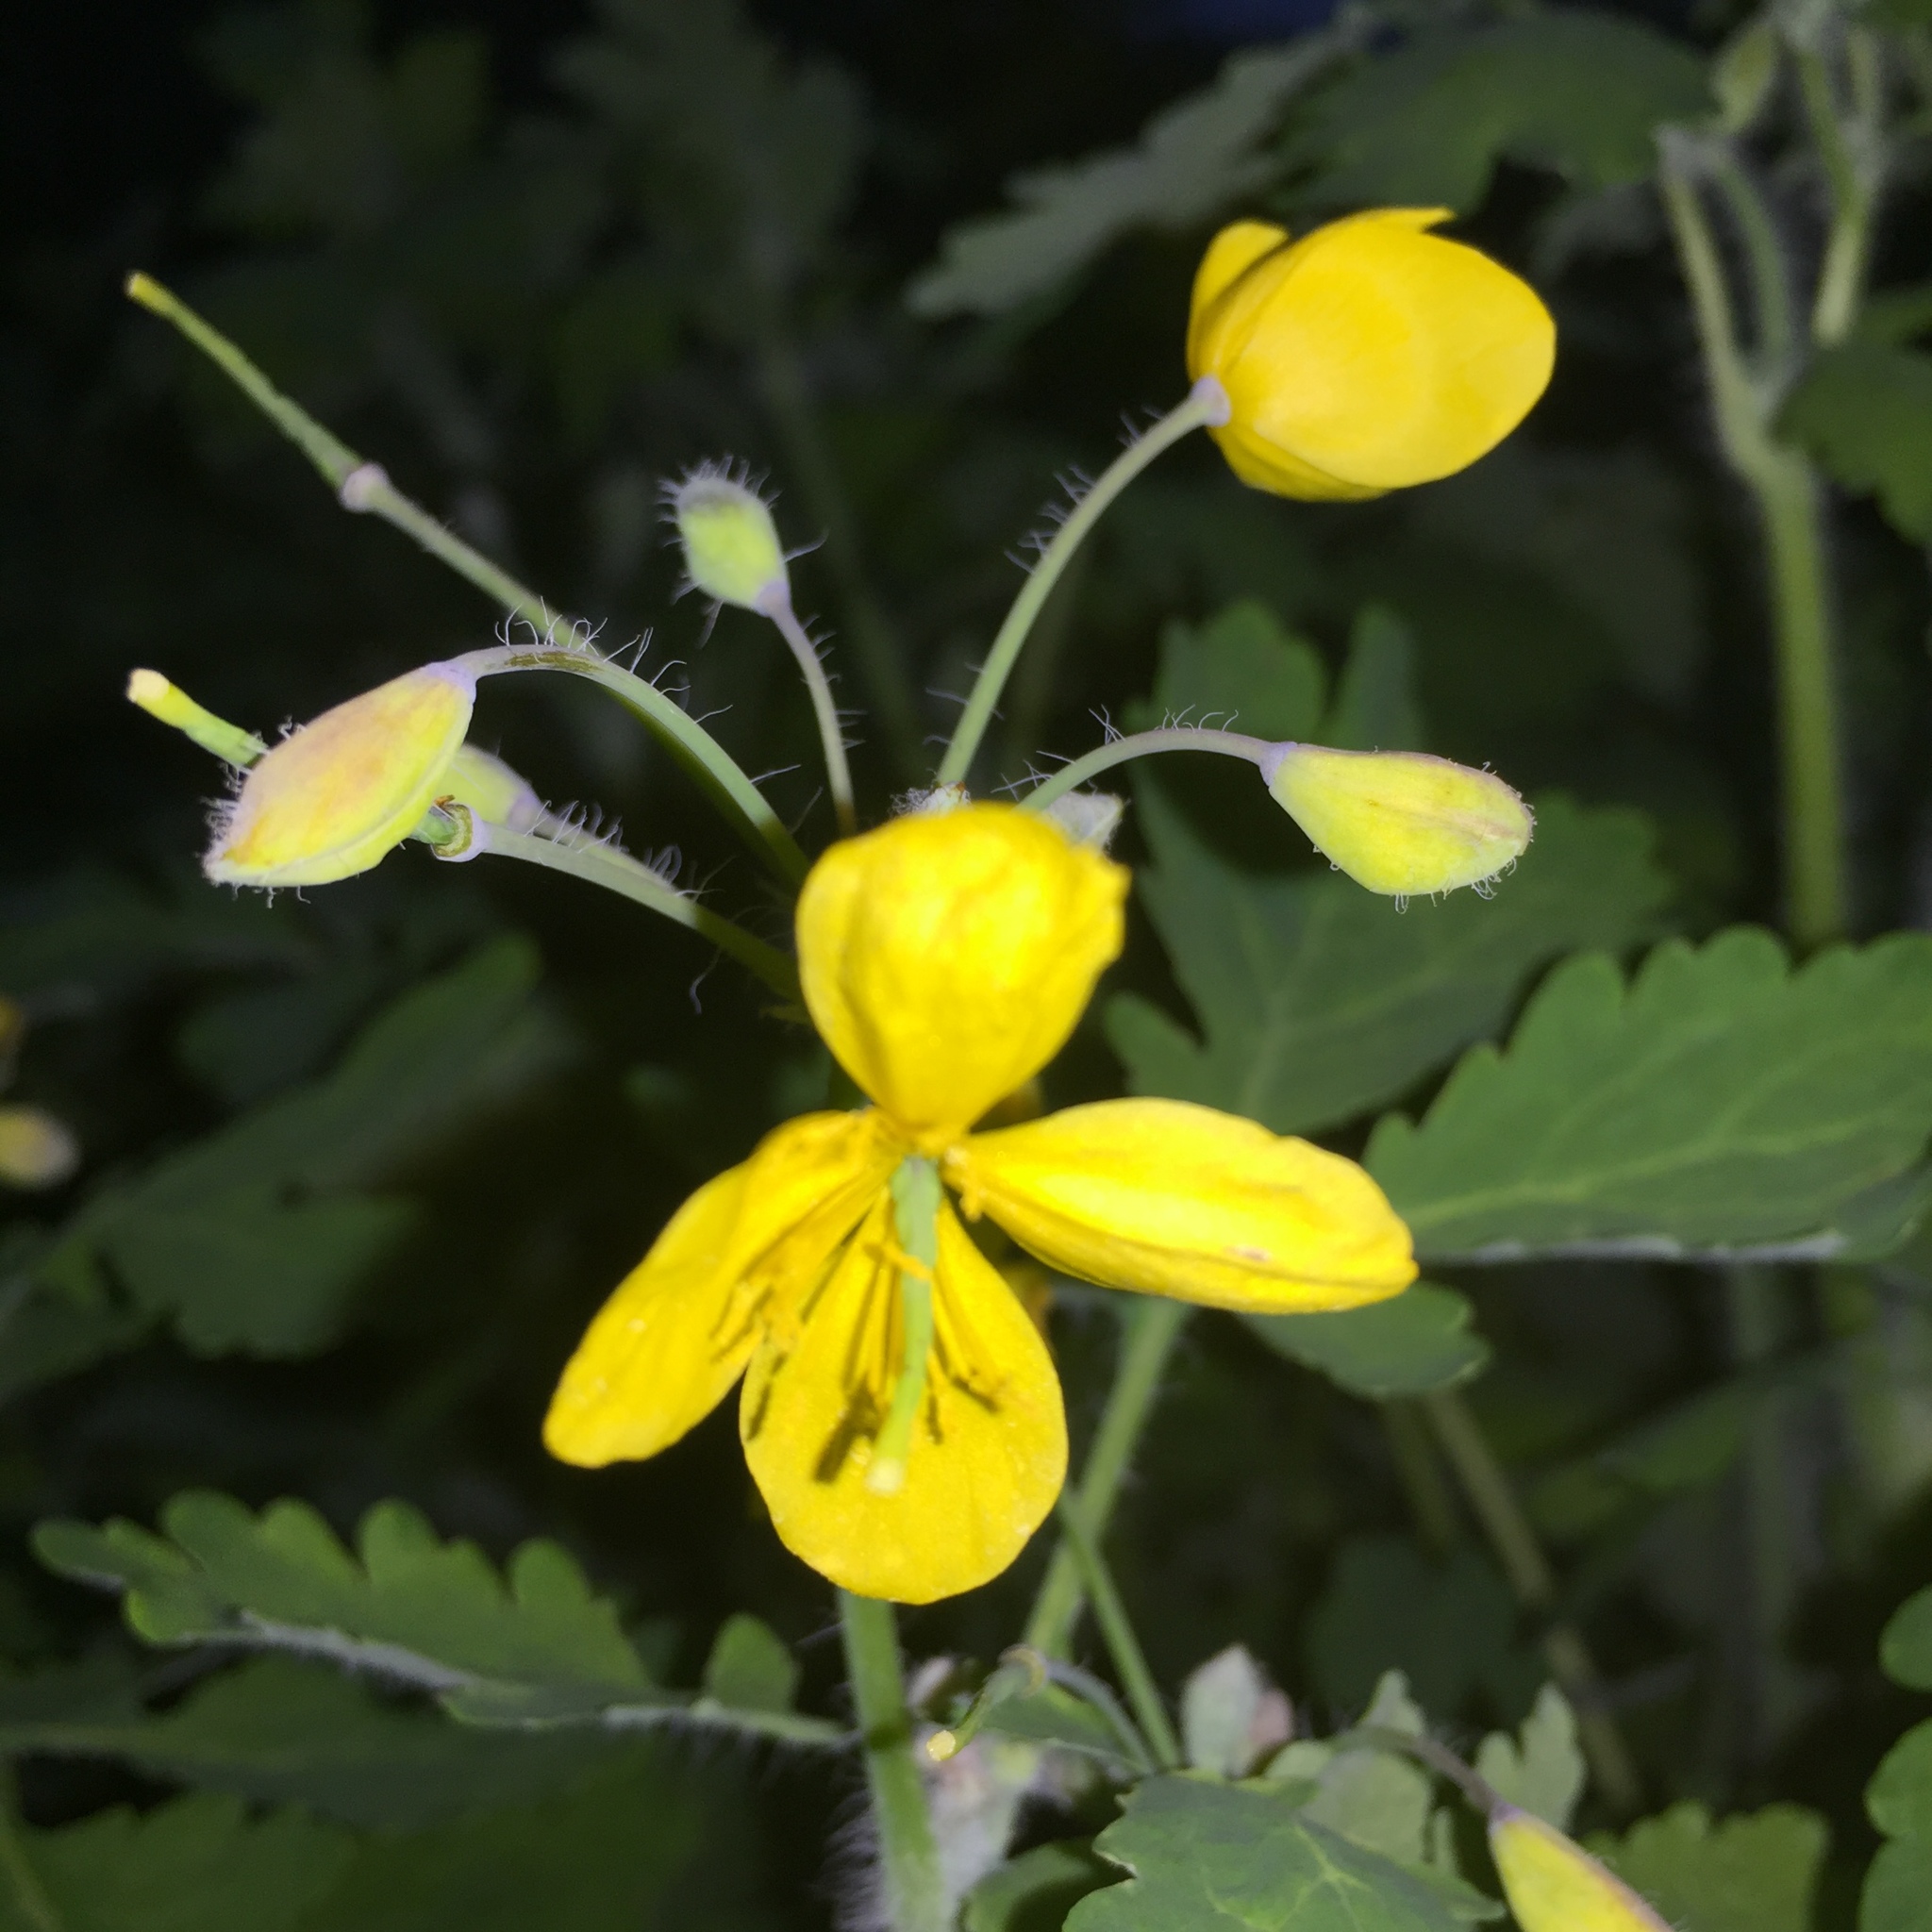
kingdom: Plantae
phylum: Tracheophyta
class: Magnoliopsida
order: Ranunculales
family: Papaveraceae
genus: Chelidonium
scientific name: Chelidonium majus
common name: Greater celandine
